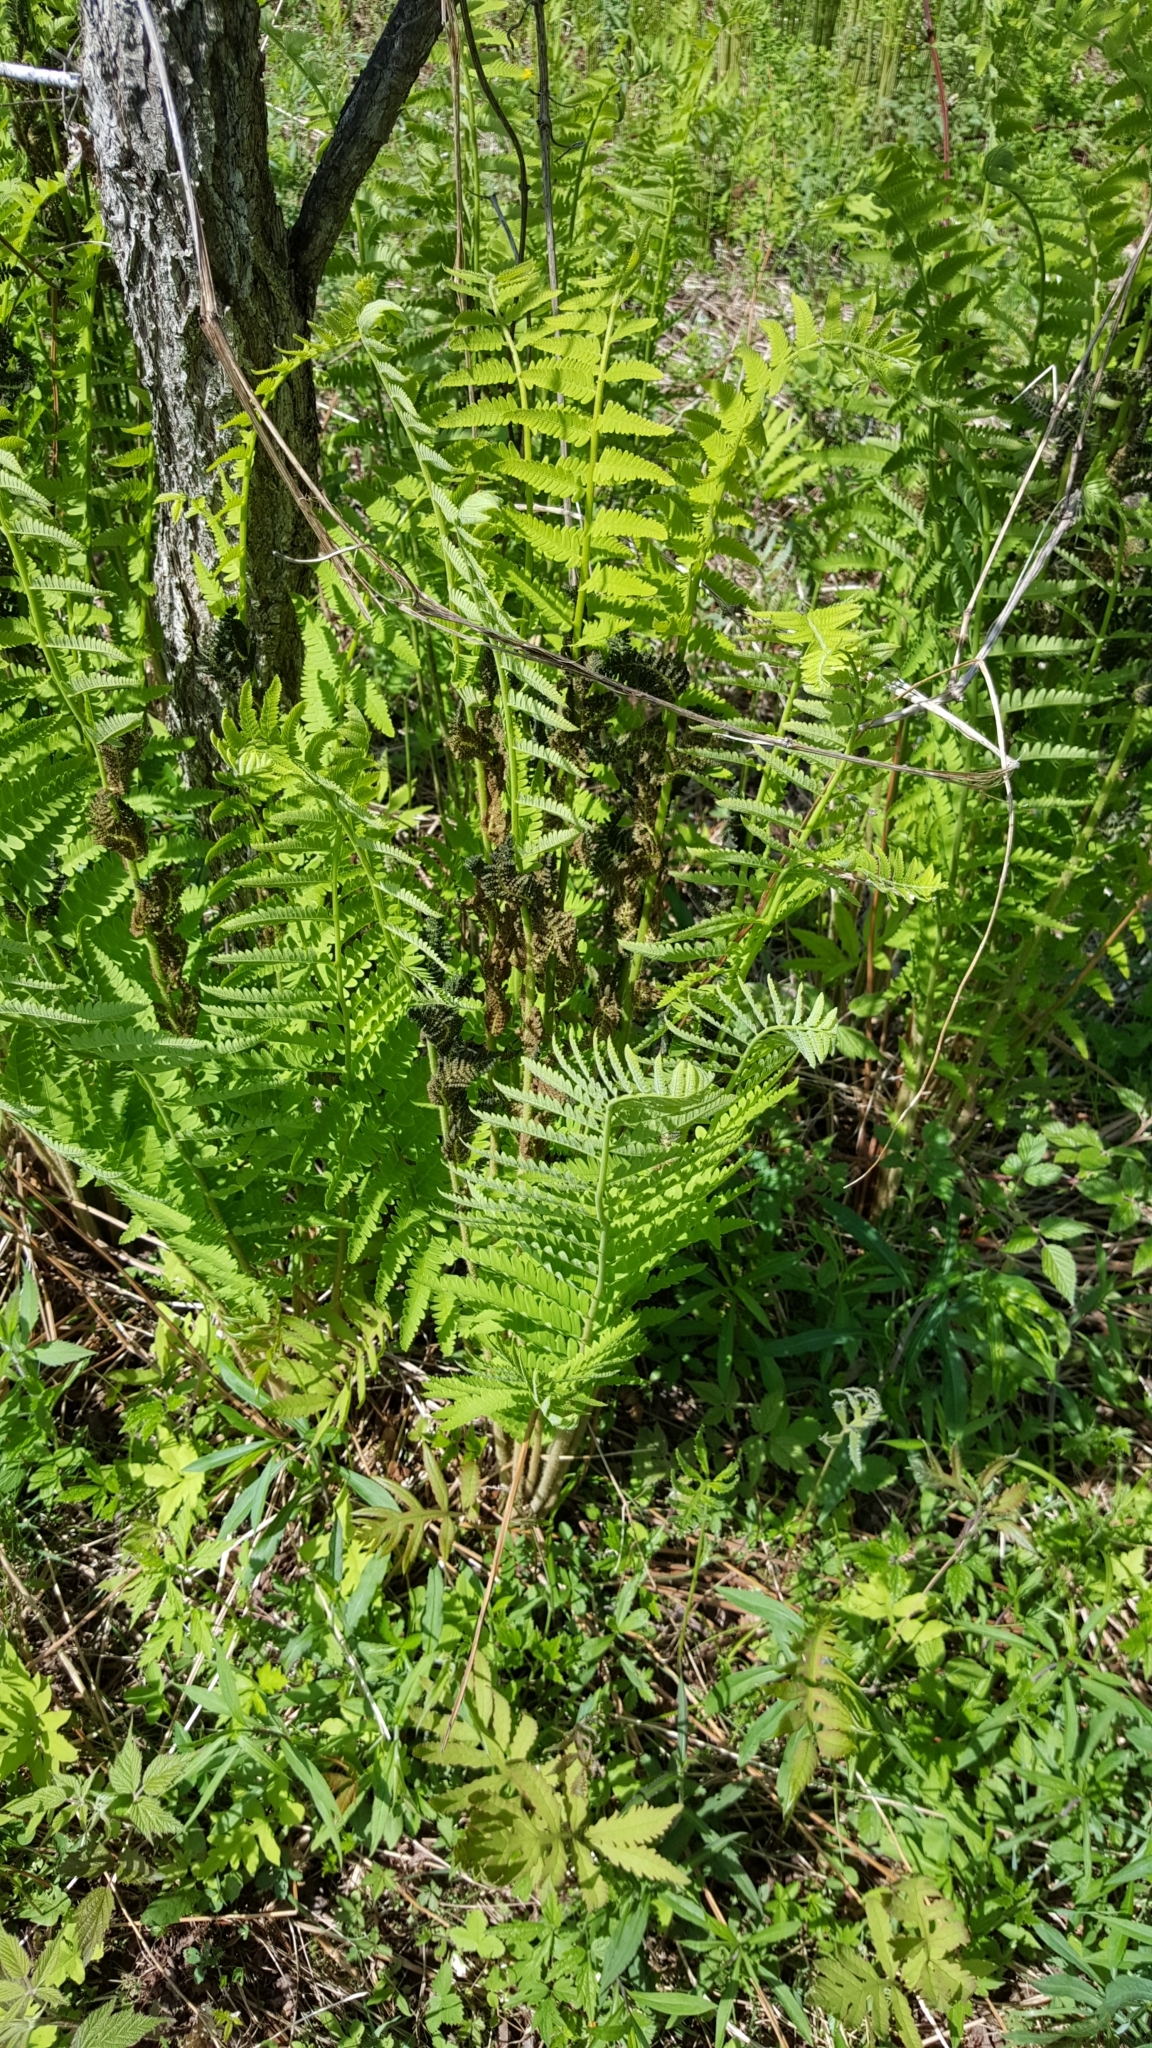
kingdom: Plantae
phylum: Tracheophyta
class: Polypodiopsida
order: Osmundales
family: Osmundaceae
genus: Claytosmunda
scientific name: Claytosmunda claytoniana
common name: Clayton's fern
